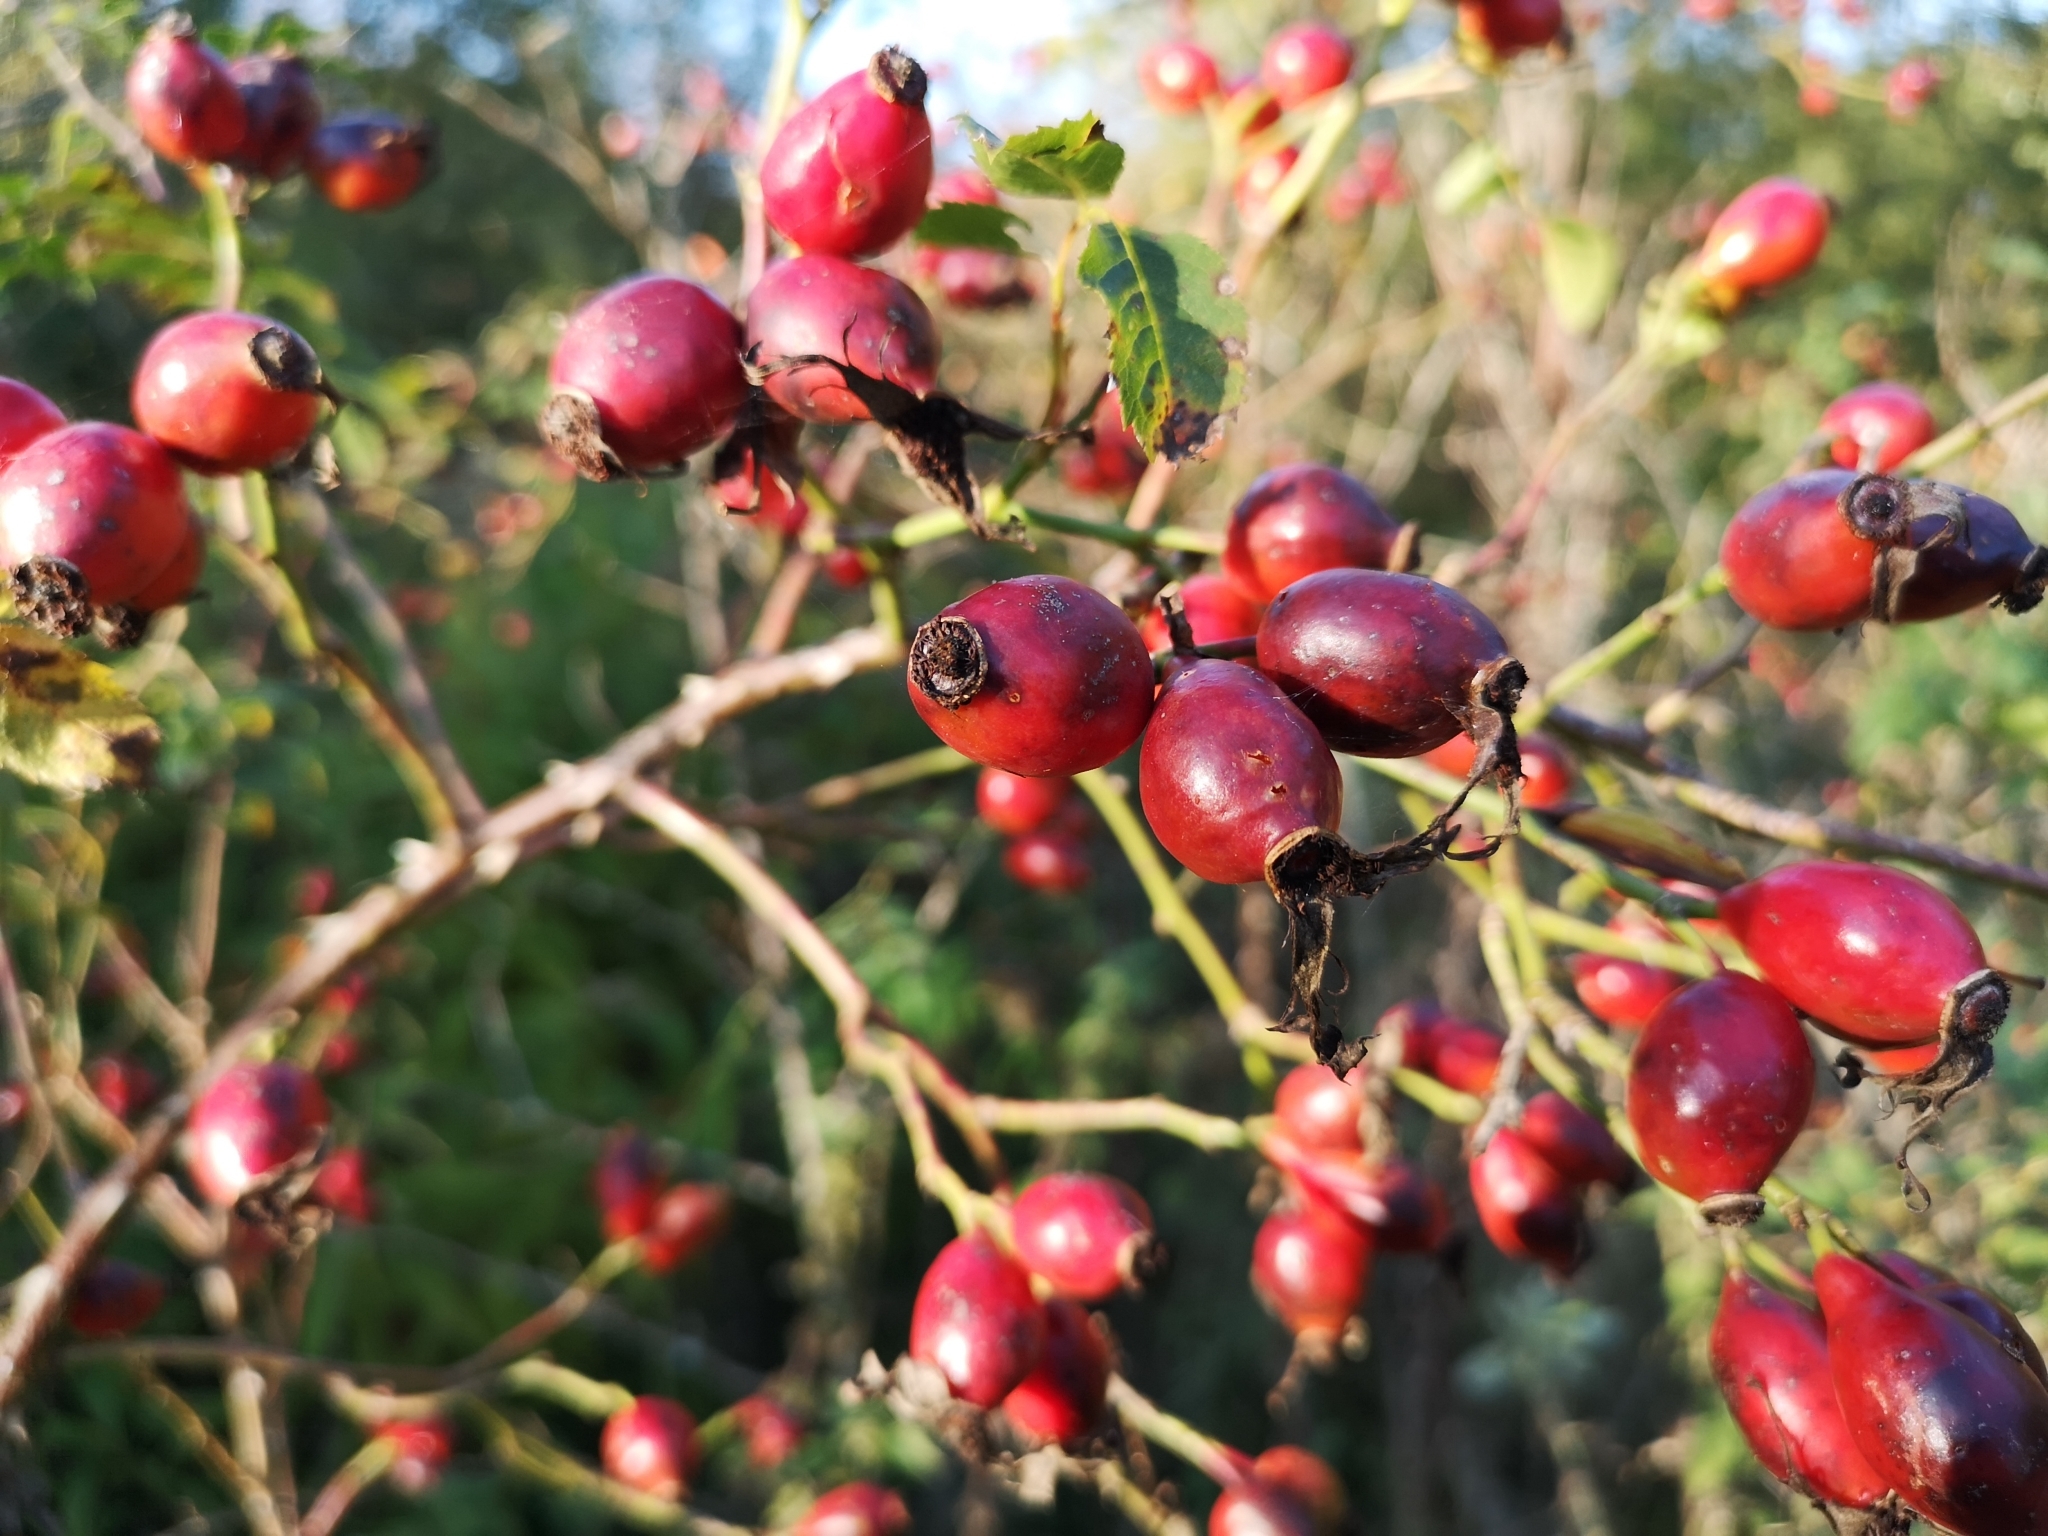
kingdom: Plantae
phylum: Tracheophyta
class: Magnoliopsida
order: Rosales
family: Rosaceae
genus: Rosa
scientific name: Rosa canina
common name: Dog rose
